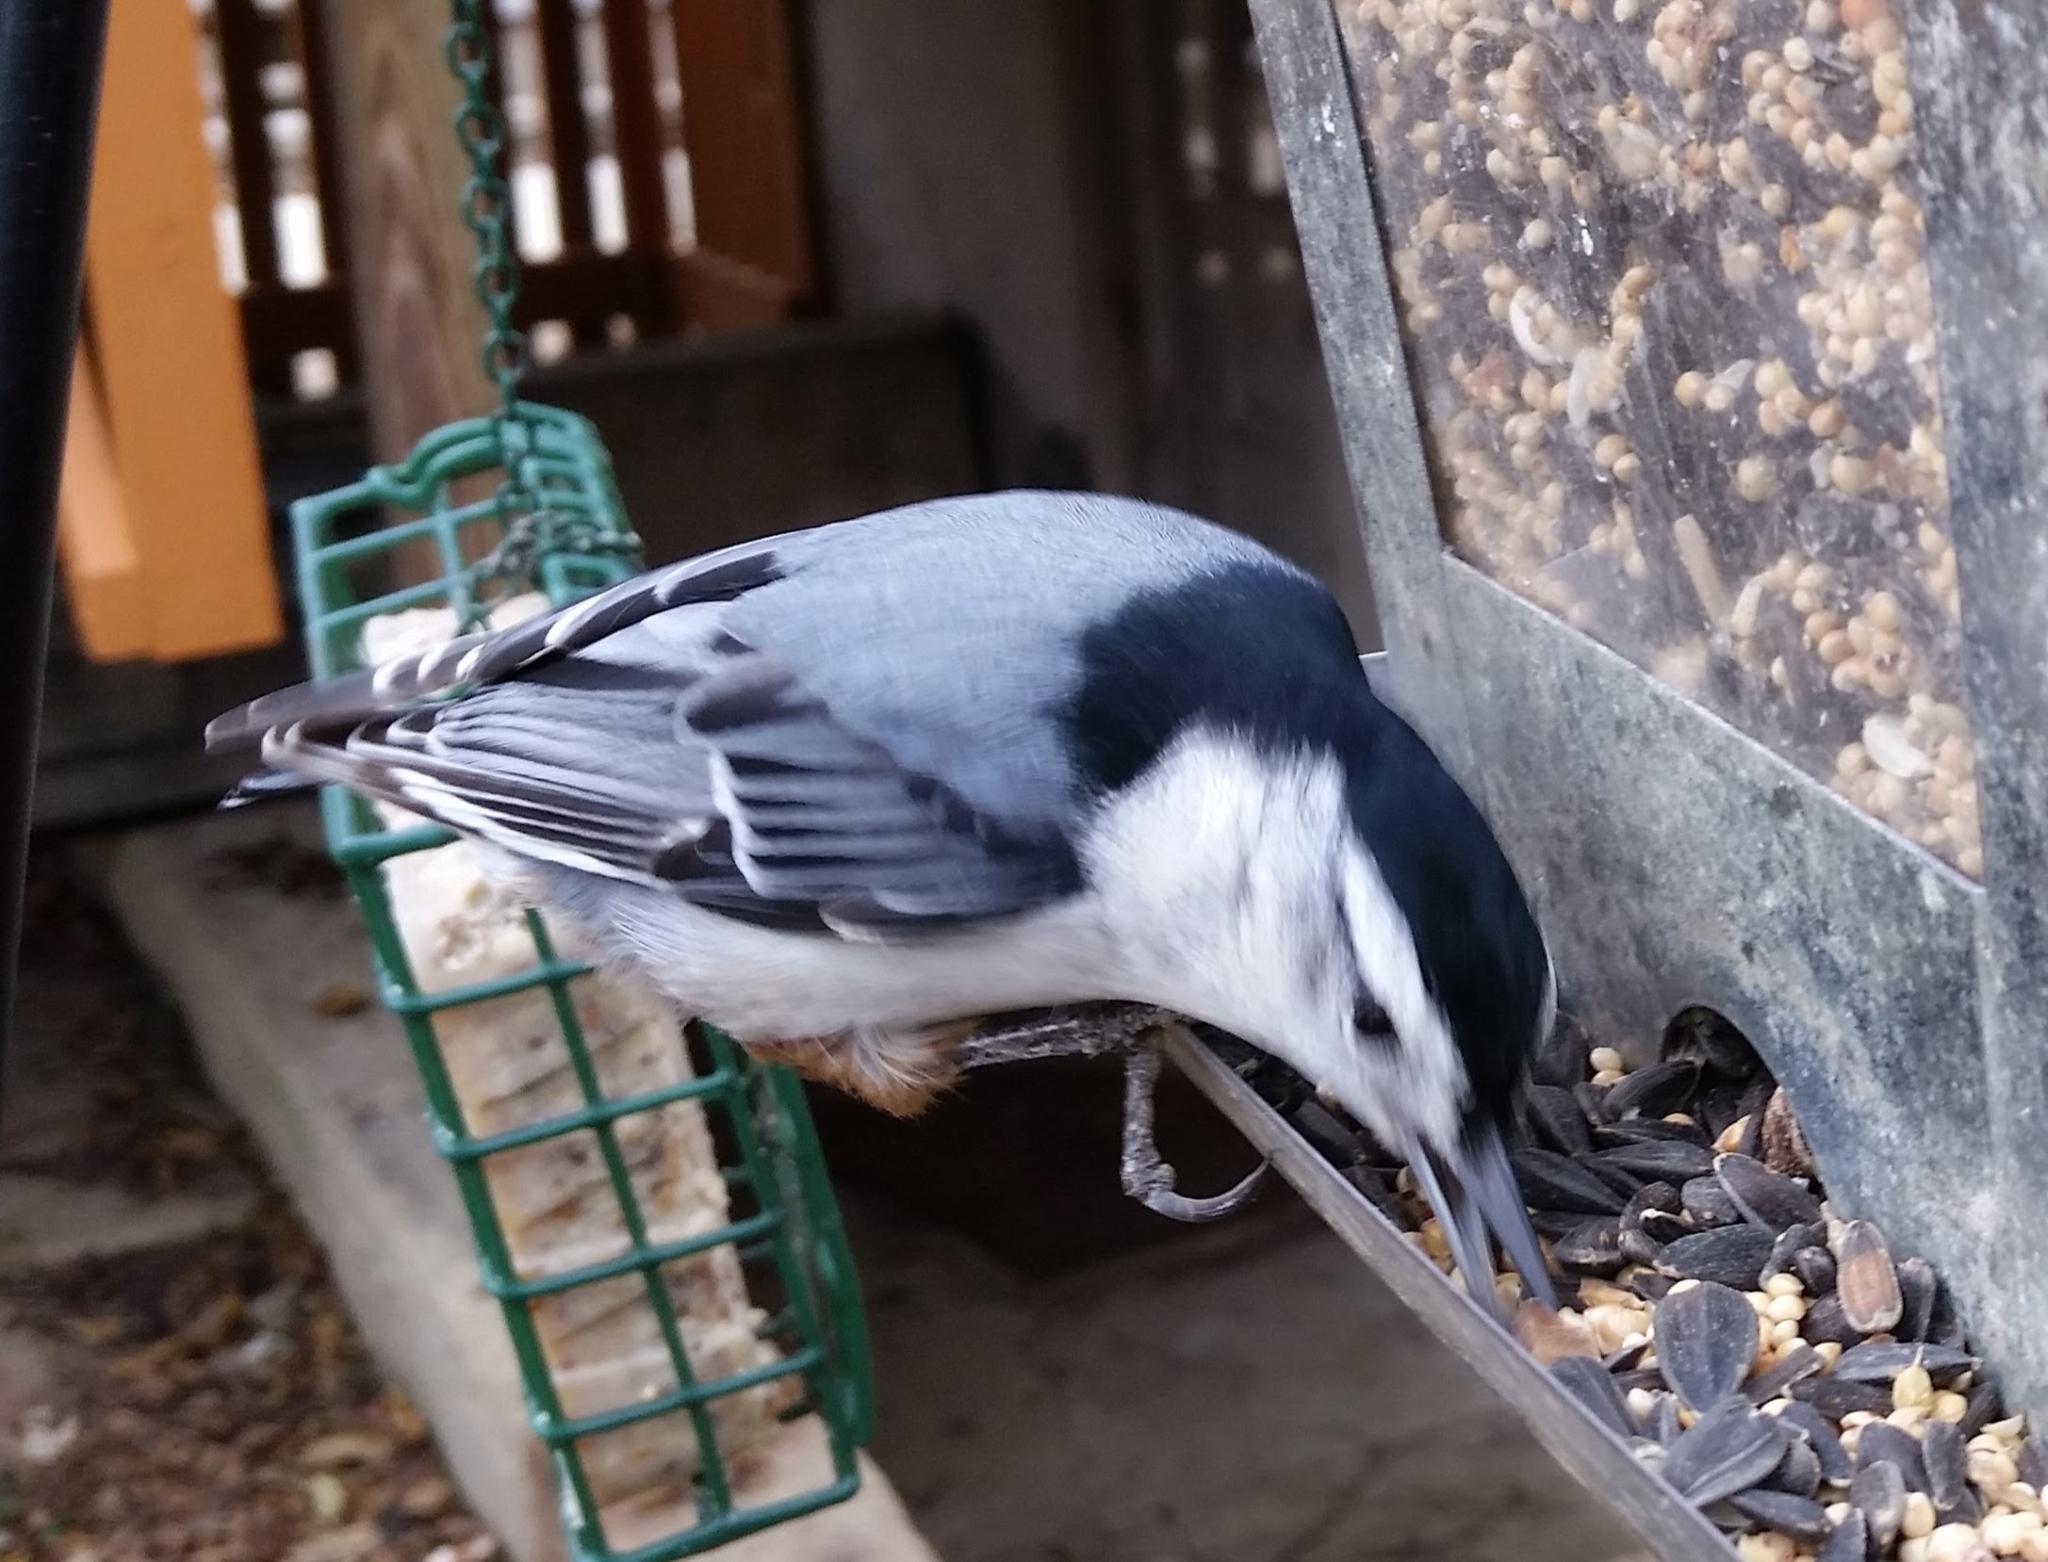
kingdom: Animalia
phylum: Chordata
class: Aves
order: Passeriformes
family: Sittidae
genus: Sitta
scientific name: Sitta carolinensis
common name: White-breasted nuthatch
